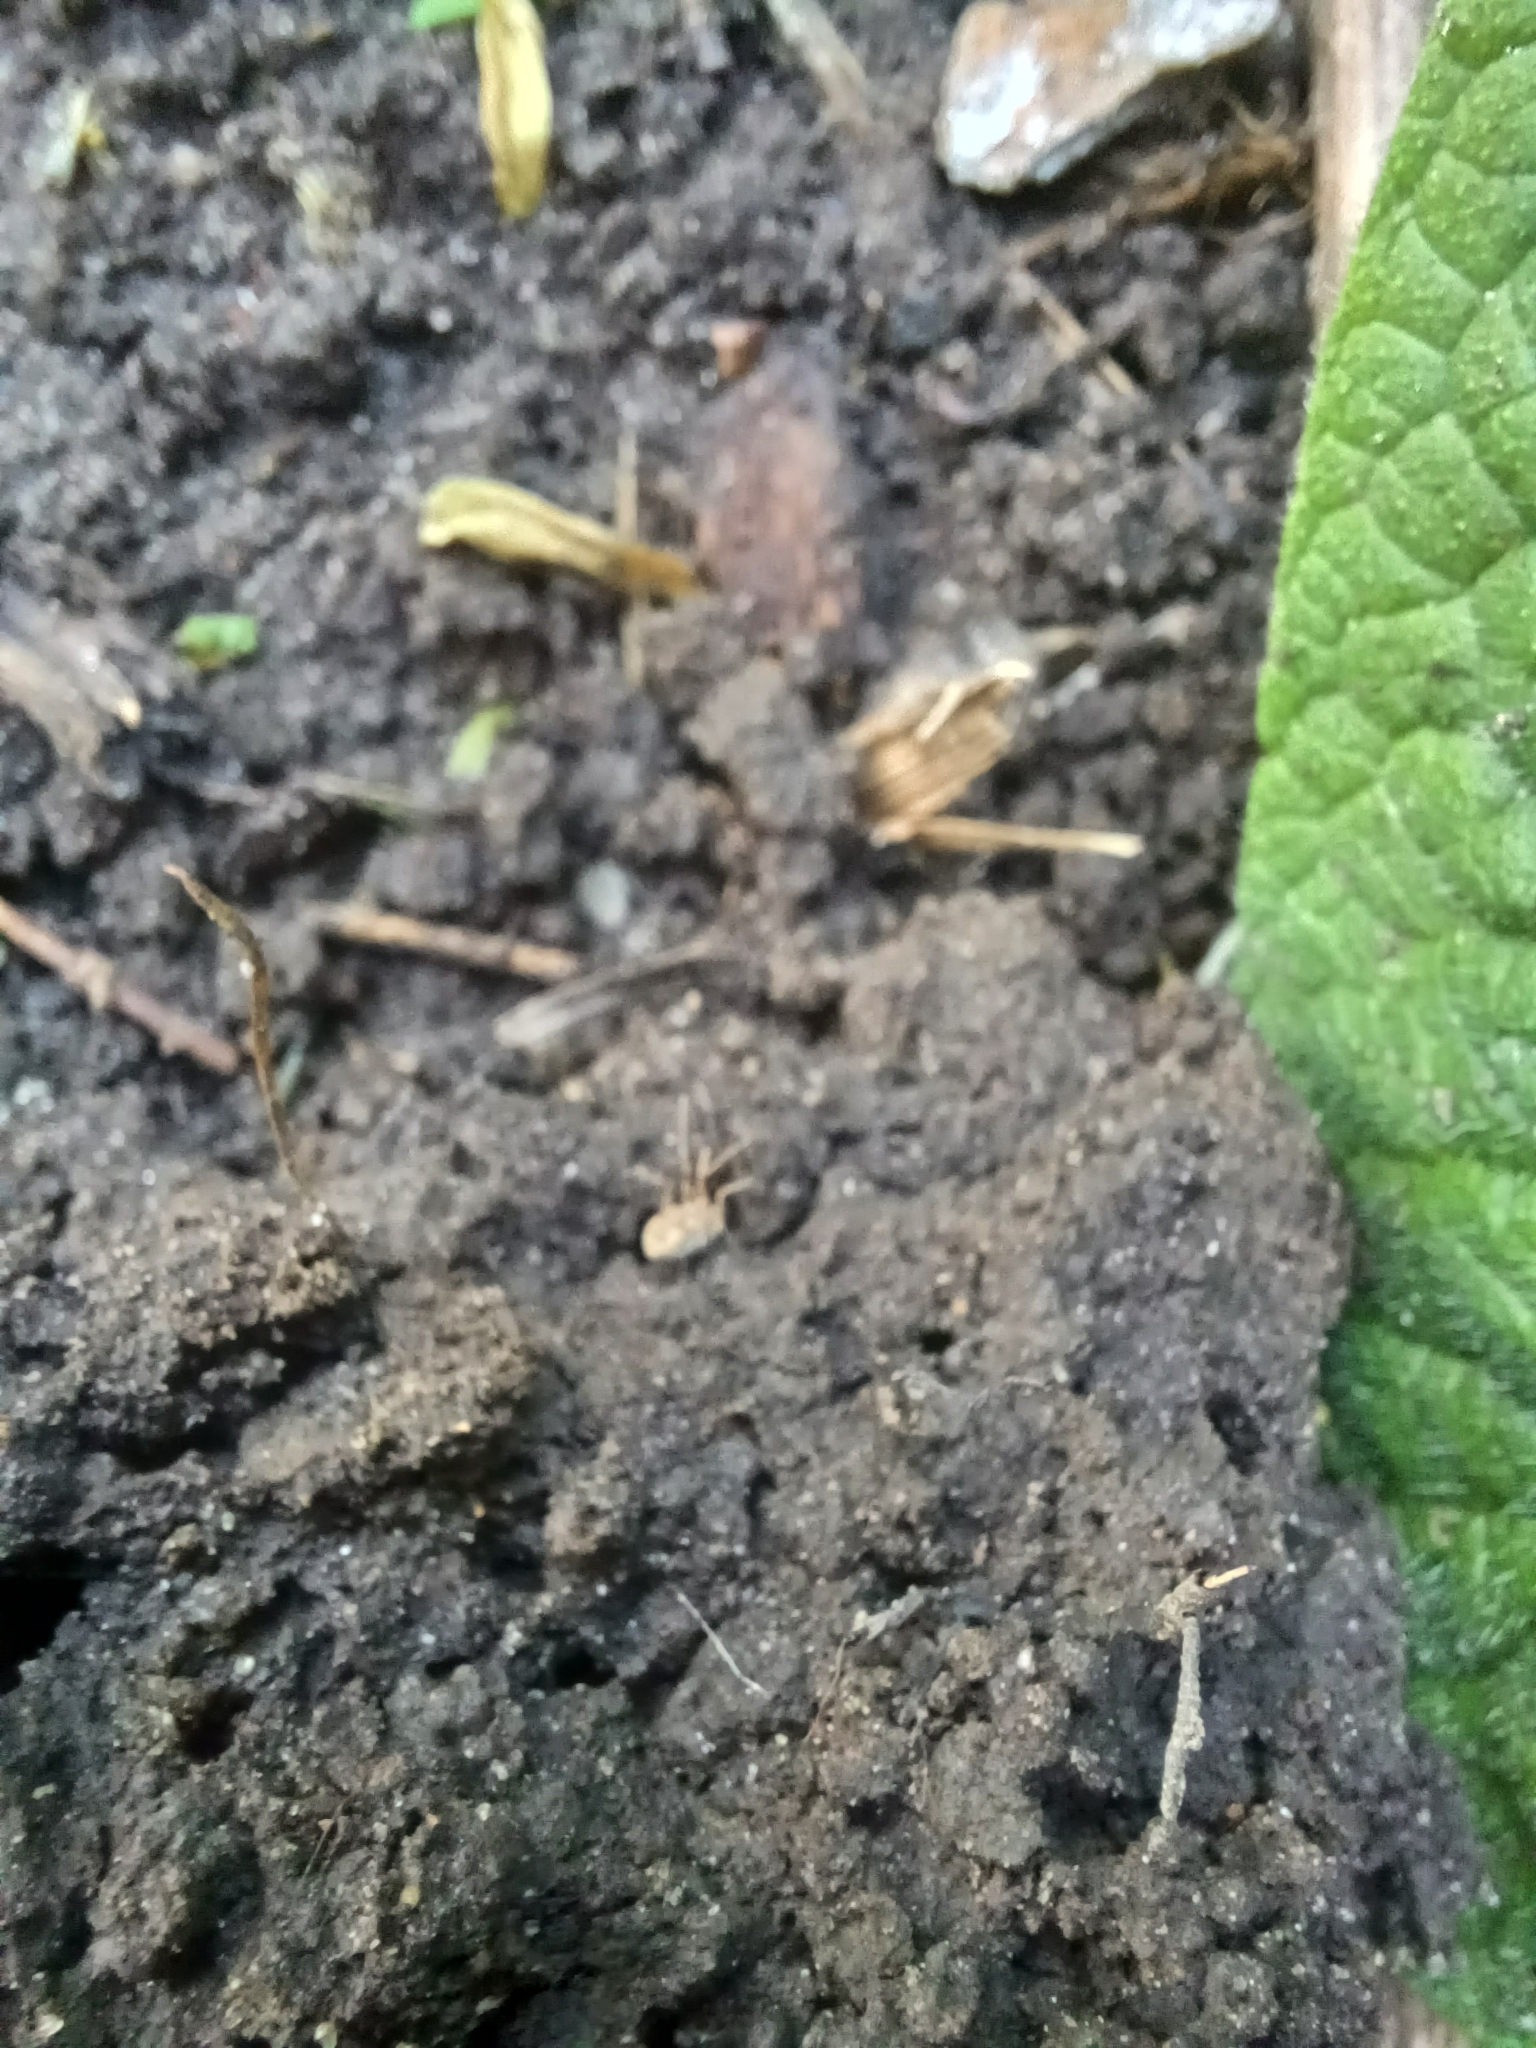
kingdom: Animalia
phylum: Arthropoda
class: Arachnida
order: Opiliones
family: Phalangiidae
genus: Phalangium
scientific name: Phalangium opilio
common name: Daddy longleg
